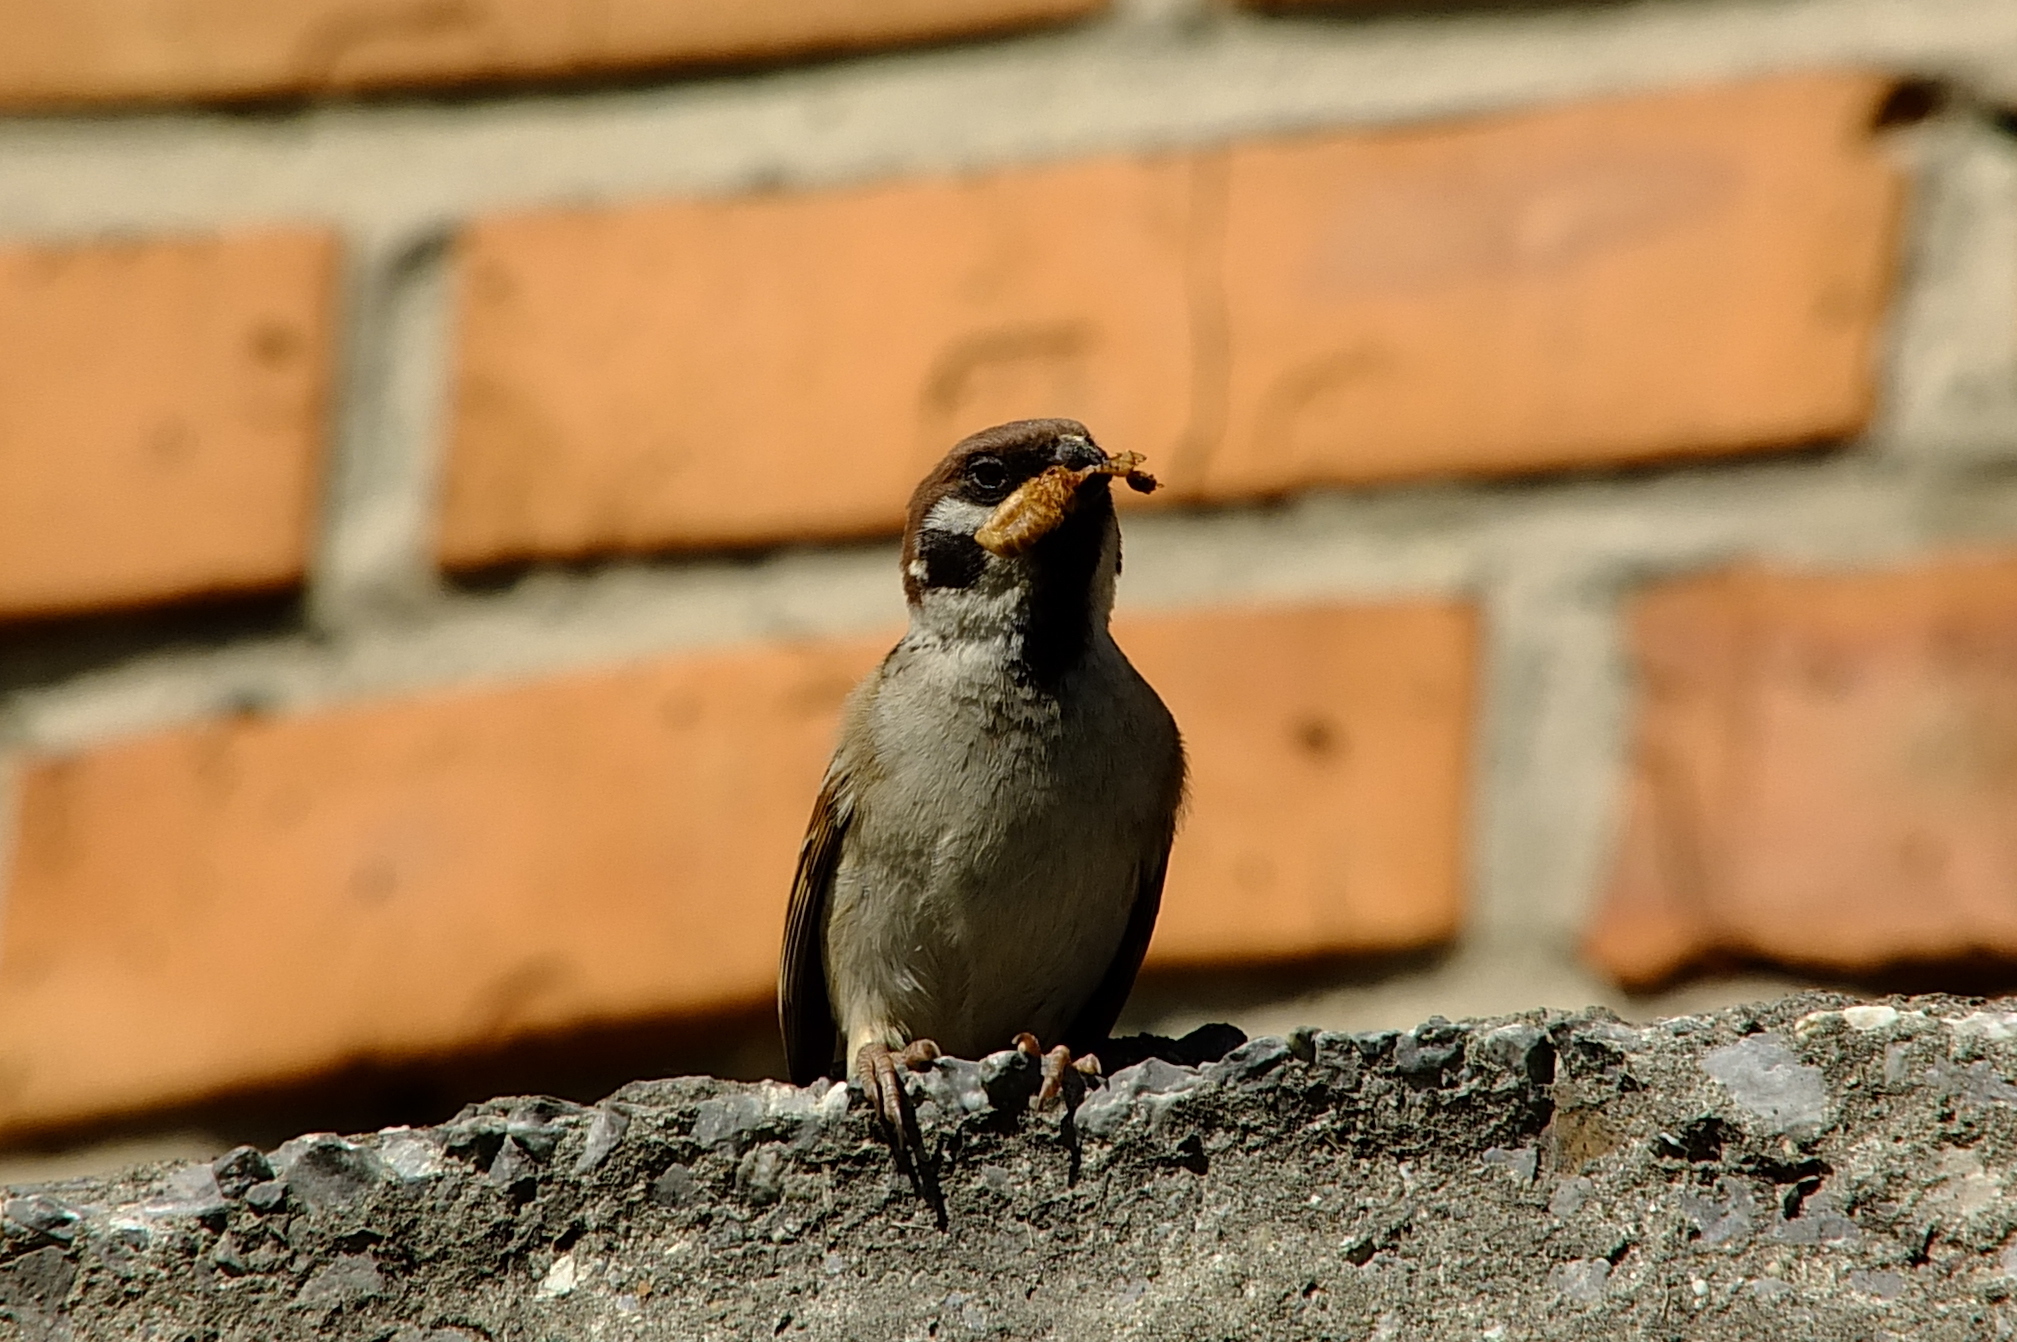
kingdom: Animalia
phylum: Chordata
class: Aves
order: Passeriformes
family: Passeridae
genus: Passer
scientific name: Passer montanus
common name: Eurasian tree sparrow
